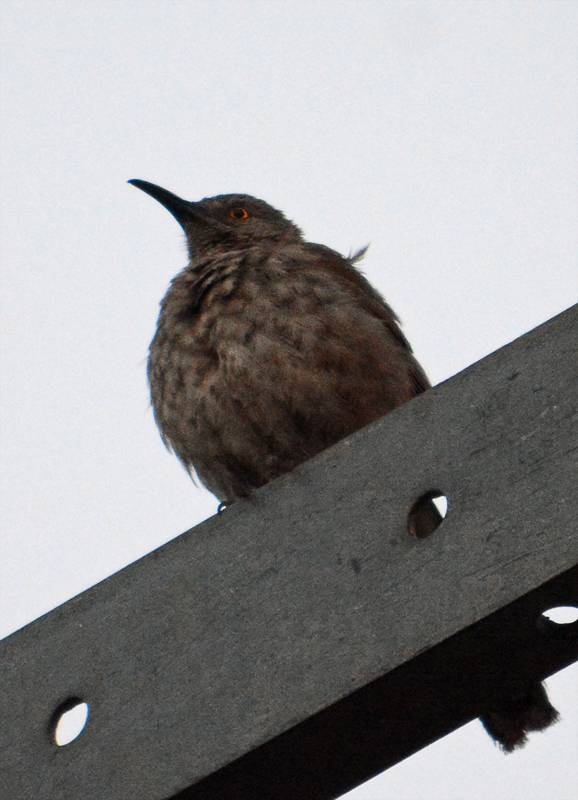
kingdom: Animalia
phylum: Chordata
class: Aves
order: Passeriformes
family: Mimidae
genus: Toxostoma
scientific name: Toxostoma curvirostre
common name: Curve-billed thrasher
